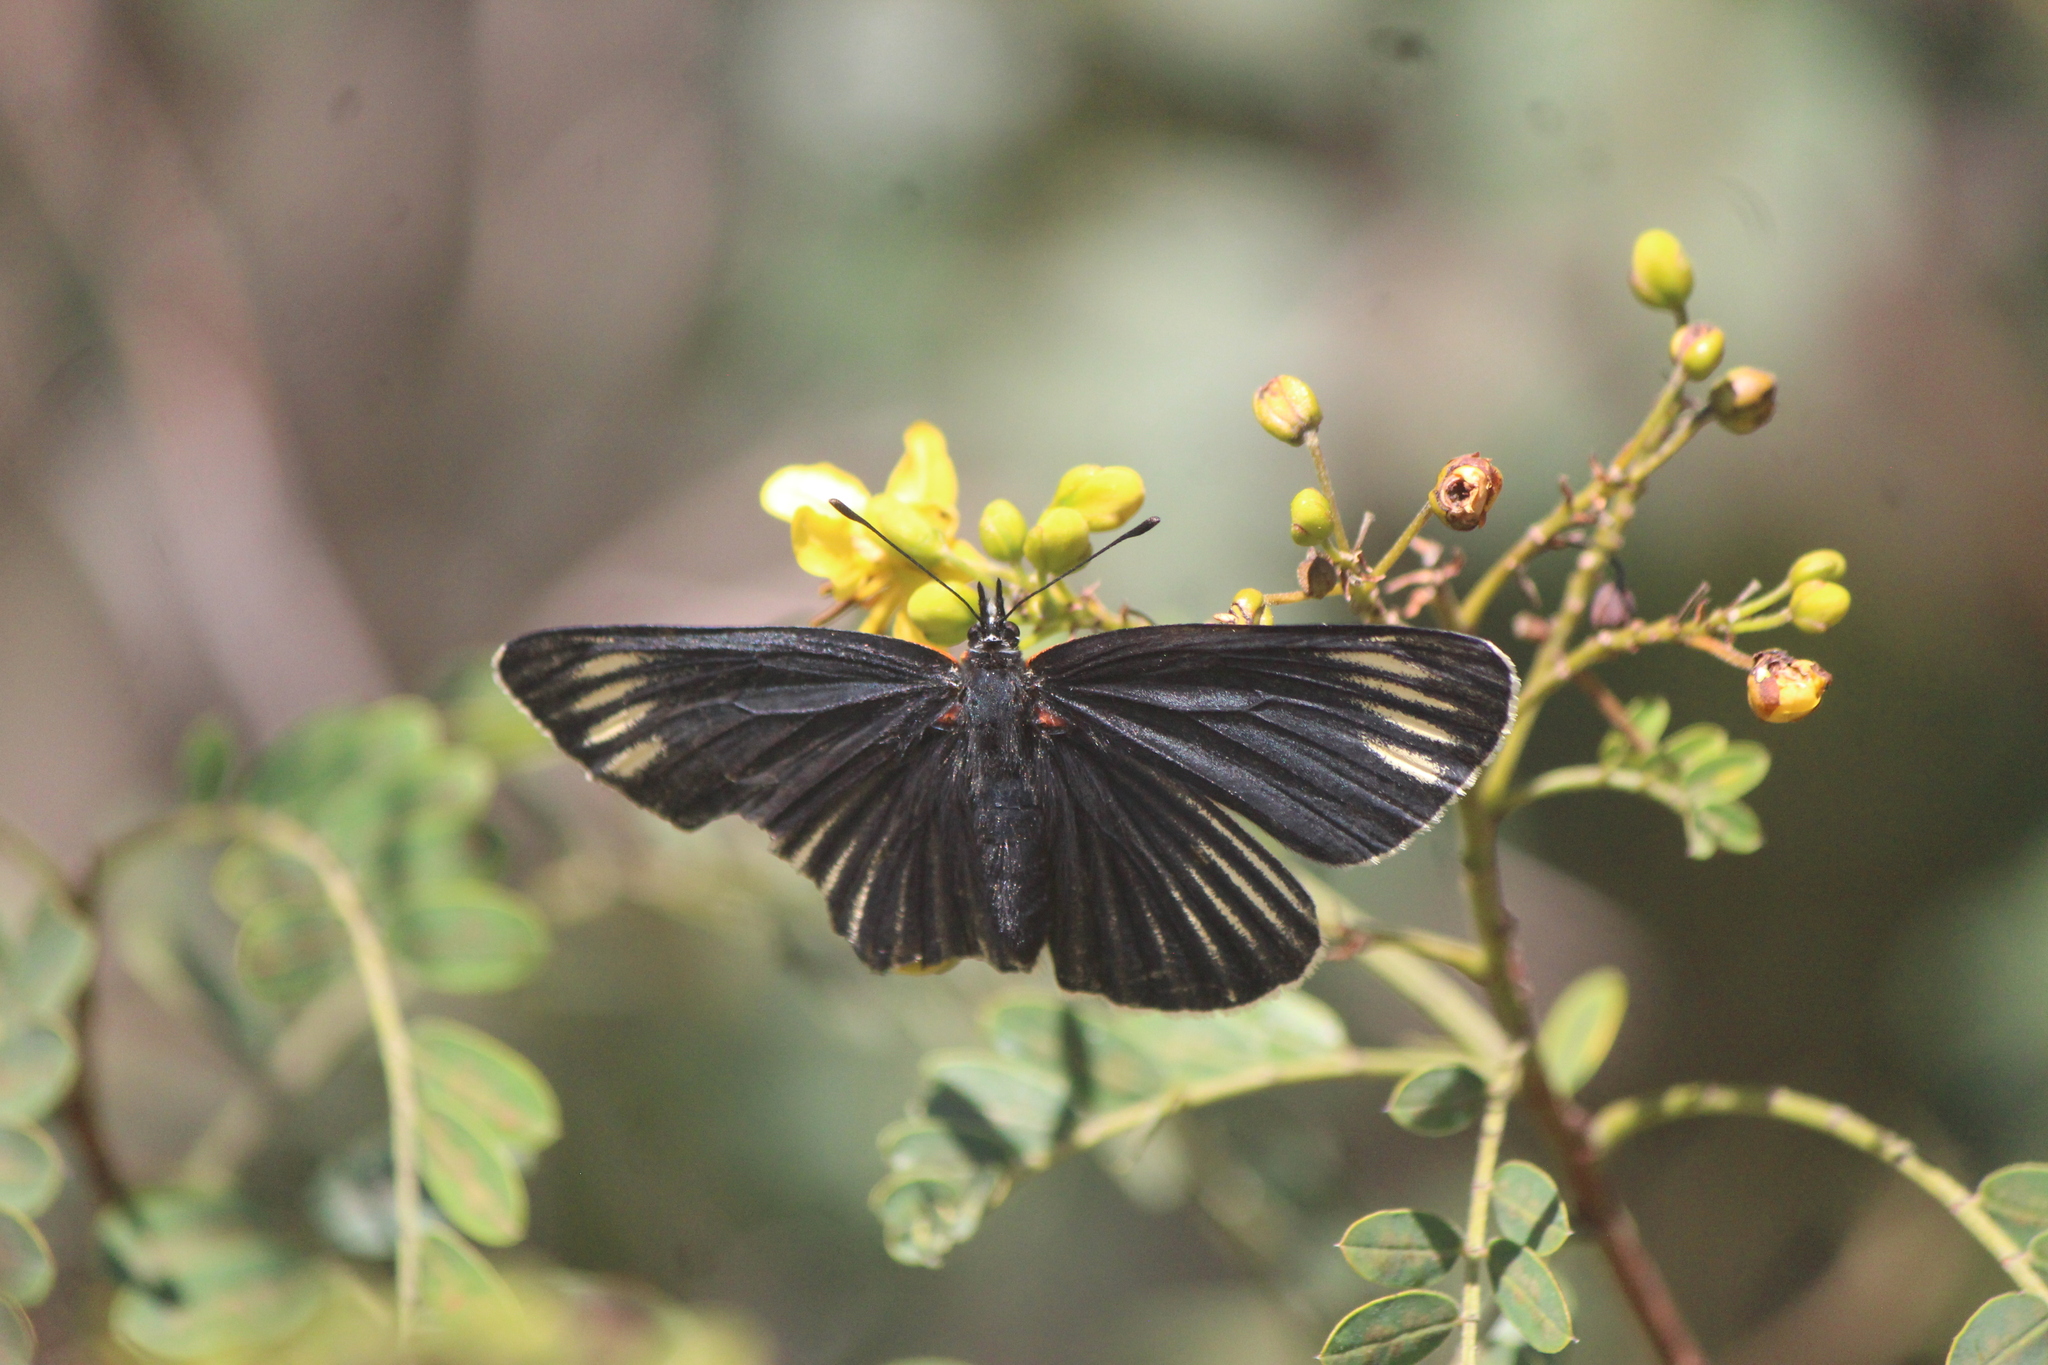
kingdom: Animalia
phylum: Arthropoda
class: Insecta
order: Lepidoptera
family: Nymphalidae
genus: Chlosyne
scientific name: Chlosyne ehrenbergii
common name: White-rayed patch
